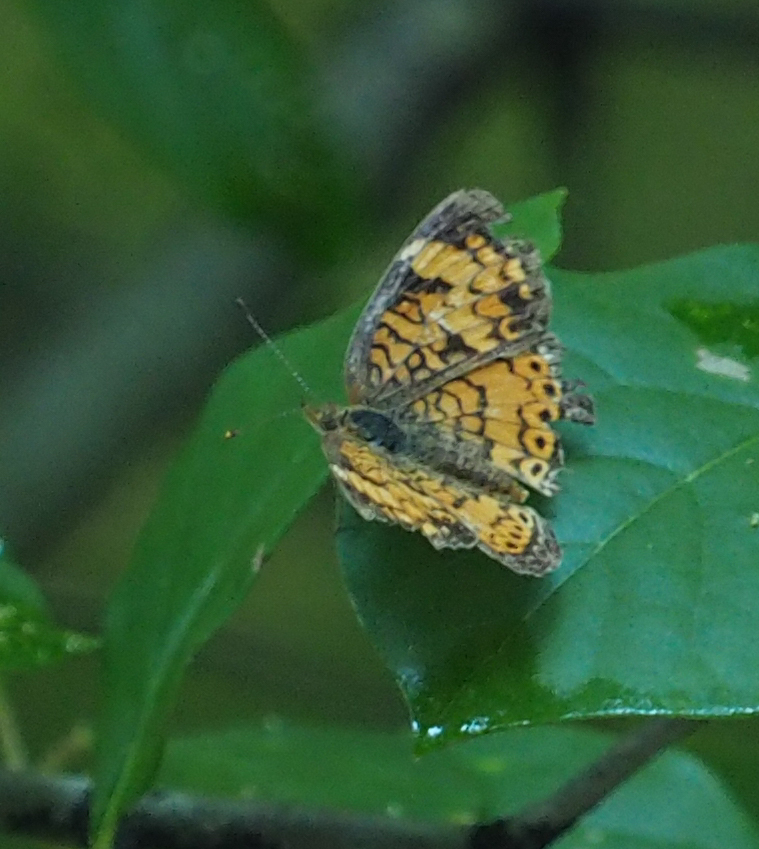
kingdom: Animalia
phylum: Arthropoda
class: Insecta
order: Lepidoptera
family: Nymphalidae
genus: Phyciodes
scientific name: Phyciodes tharos
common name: Pearl crescent
